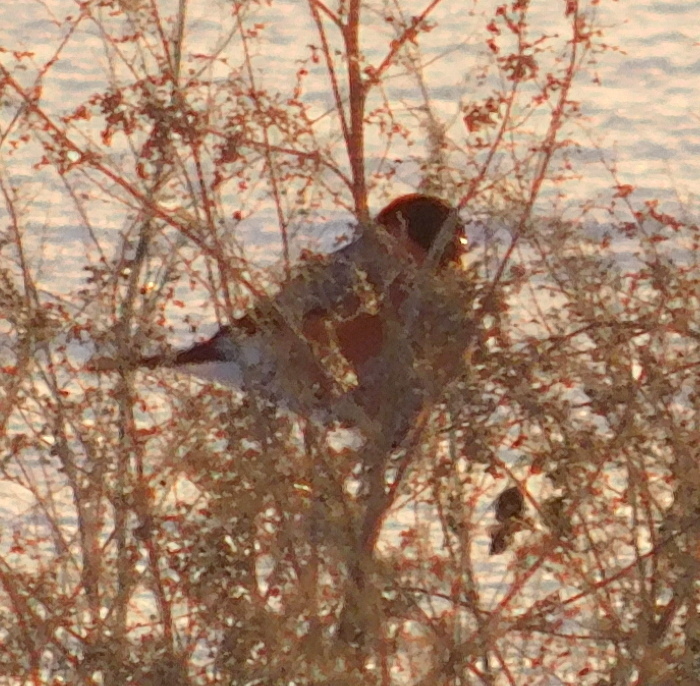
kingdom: Animalia
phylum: Chordata
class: Aves
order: Passeriformes
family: Fringillidae
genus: Pyrrhula
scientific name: Pyrrhula pyrrhula
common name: Eurasian bullfinch
